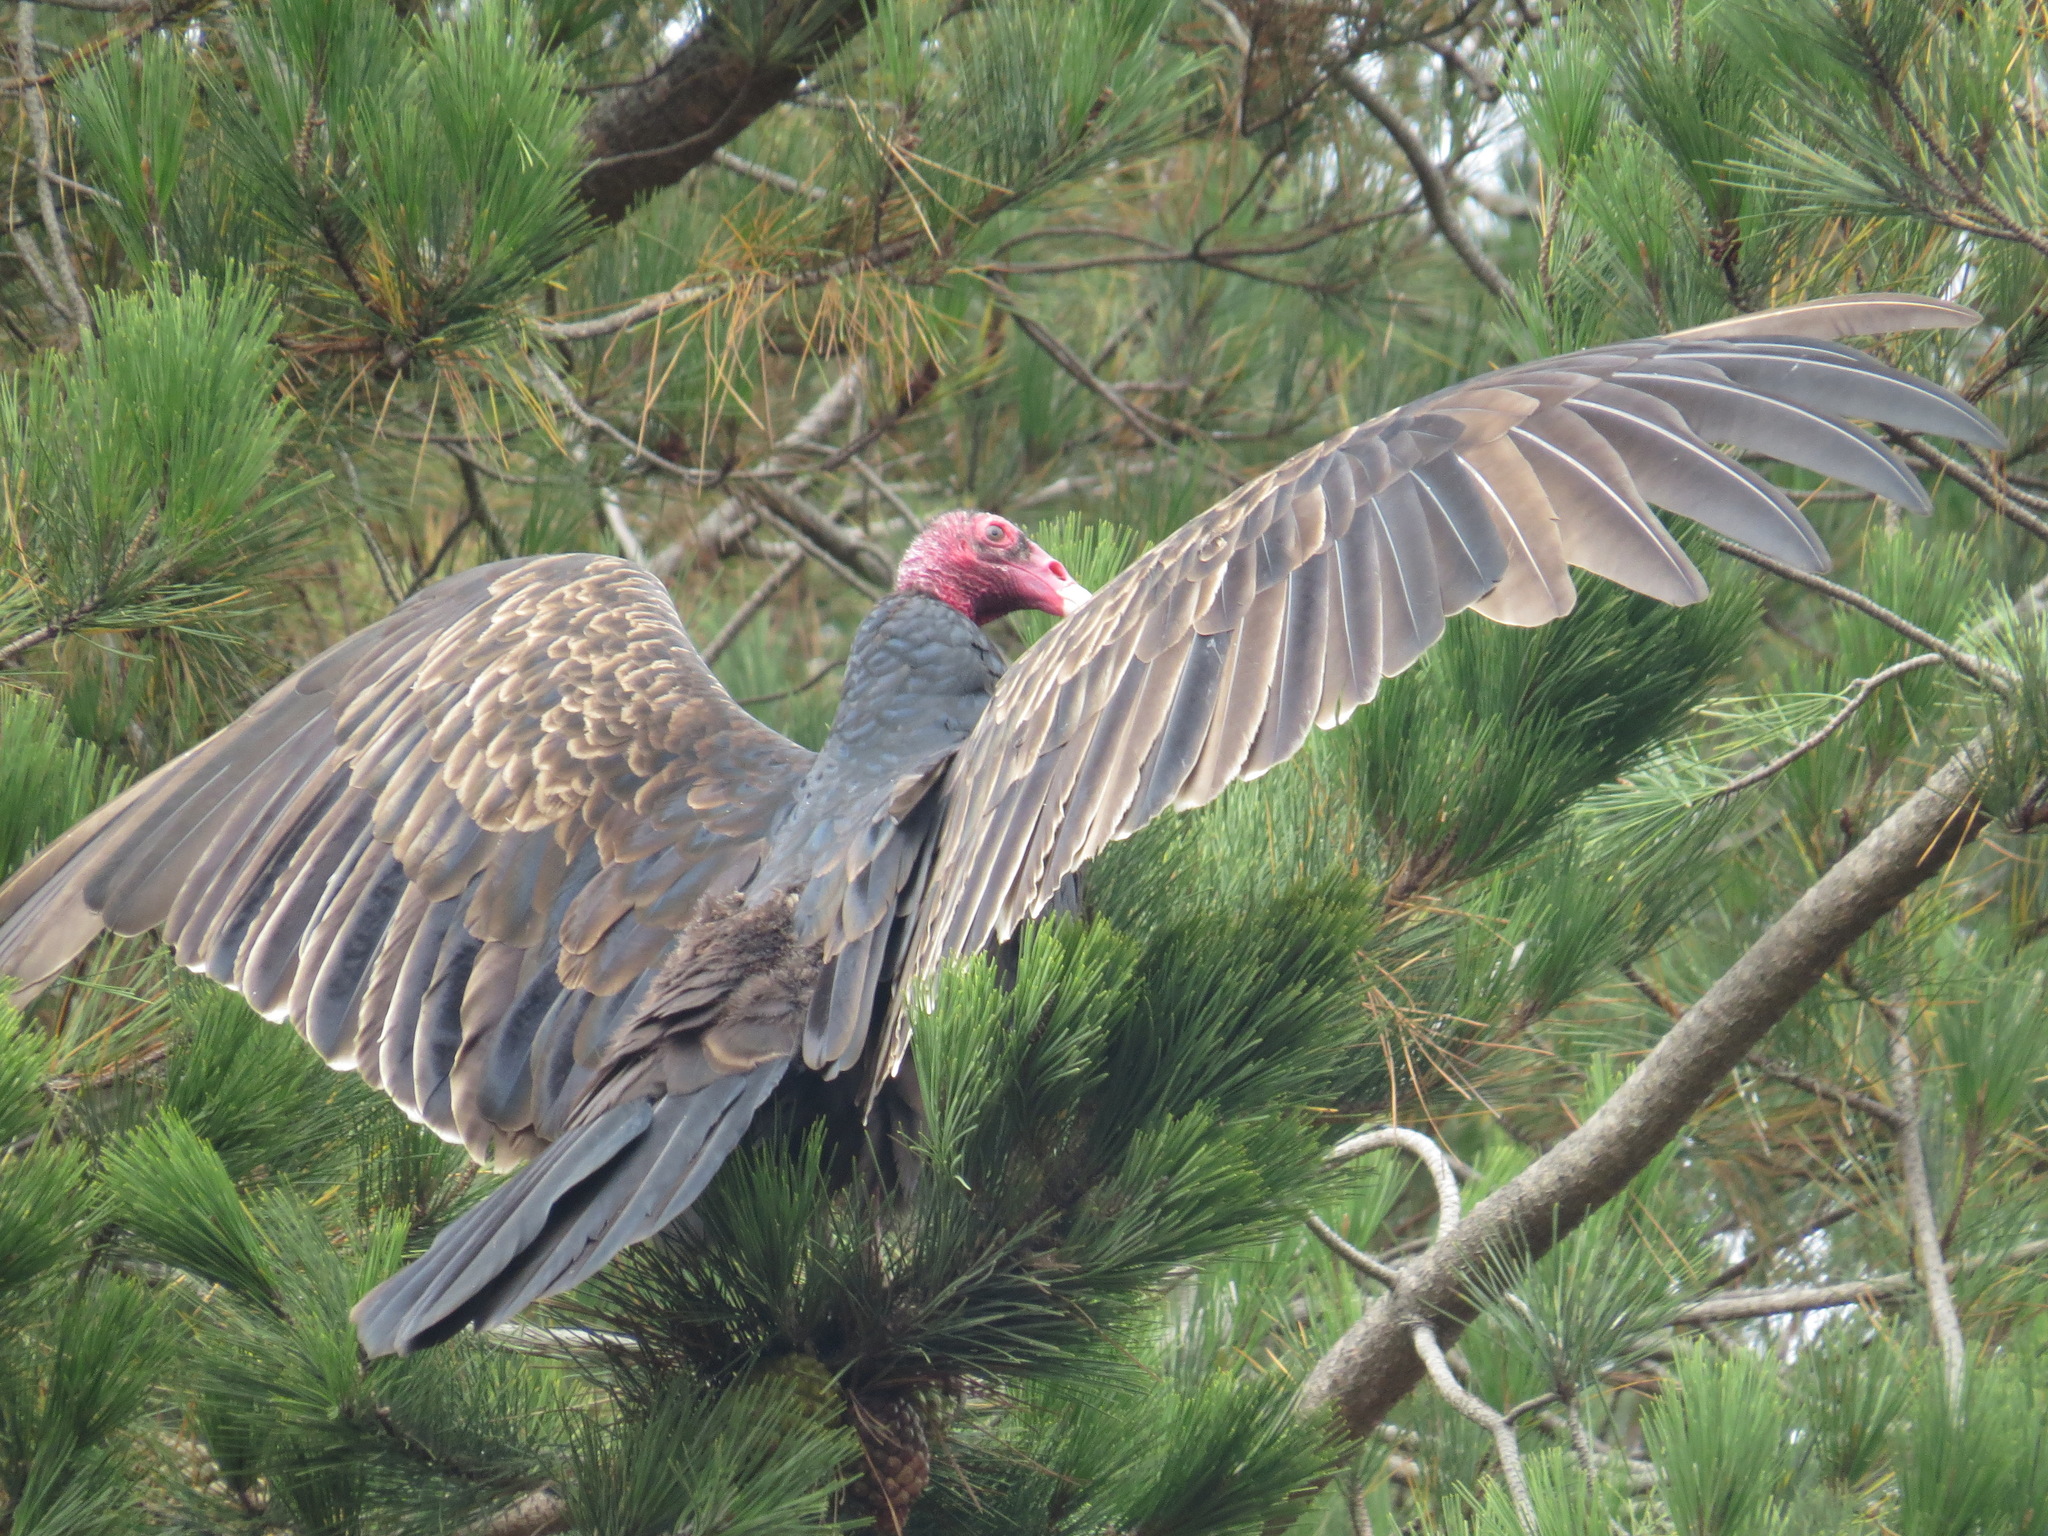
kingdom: Animalia
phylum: Chordata
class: Aves
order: Accipitriformes
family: Cathartidae
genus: Cathartes
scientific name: Cathartes aura
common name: Turkey vulture
